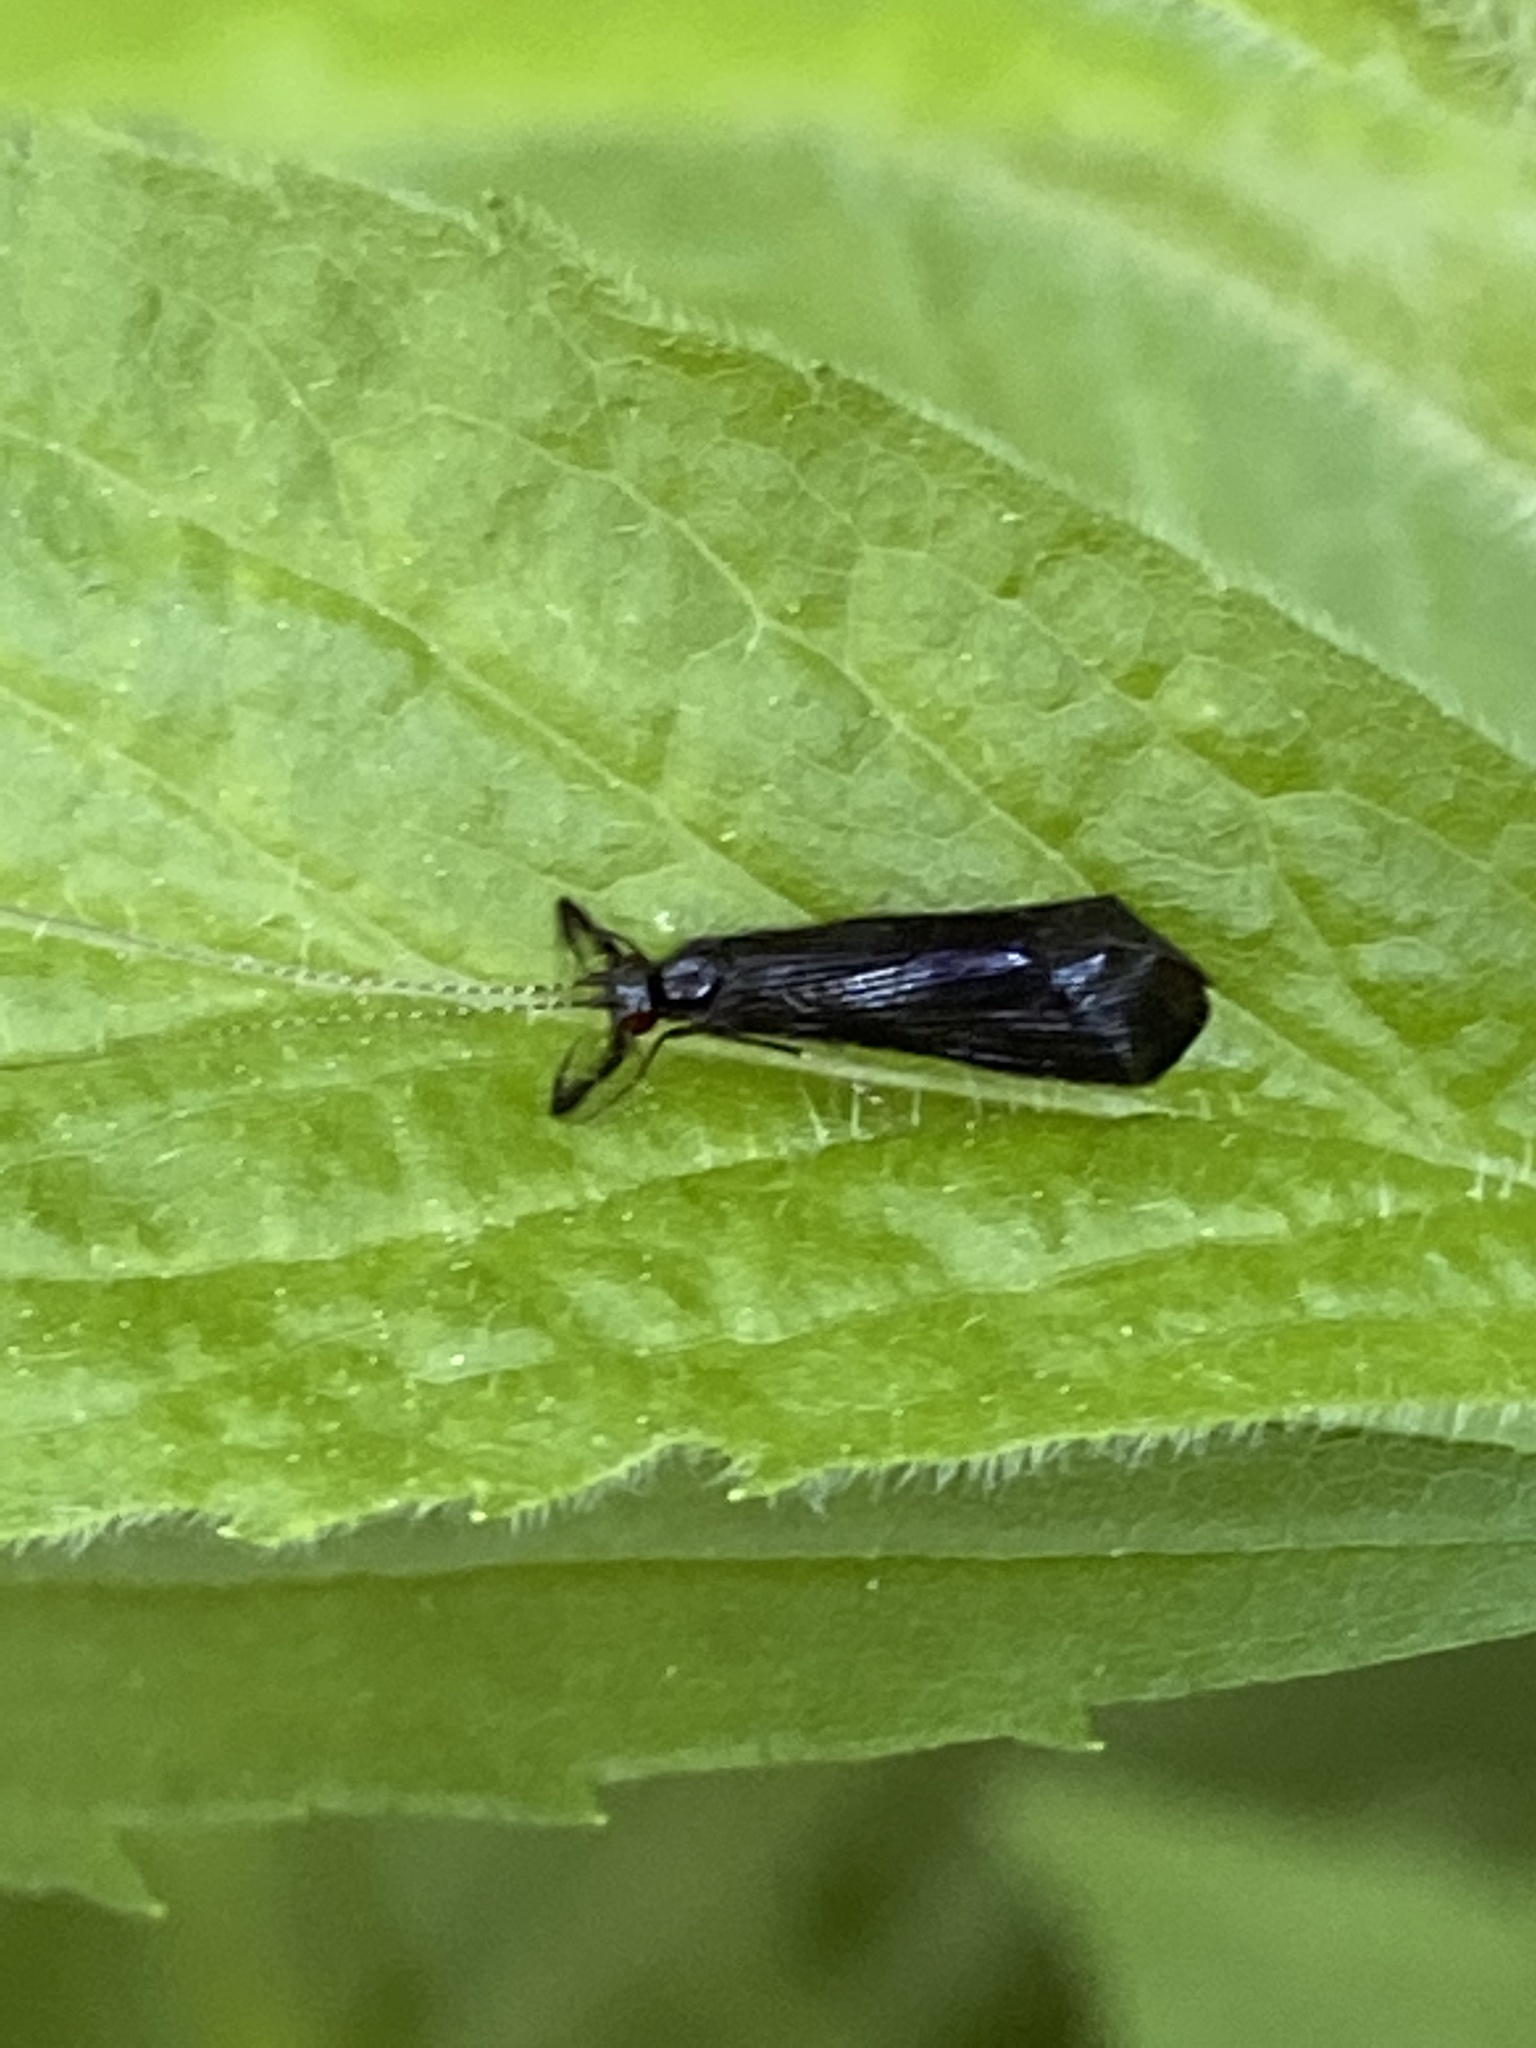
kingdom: Animalia
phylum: Arthropoda
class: Insecta
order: Trichoptera
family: Leptoceridae
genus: Mystacides
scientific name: Mystacides sepulchralis
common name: Black dancer caddisfly
